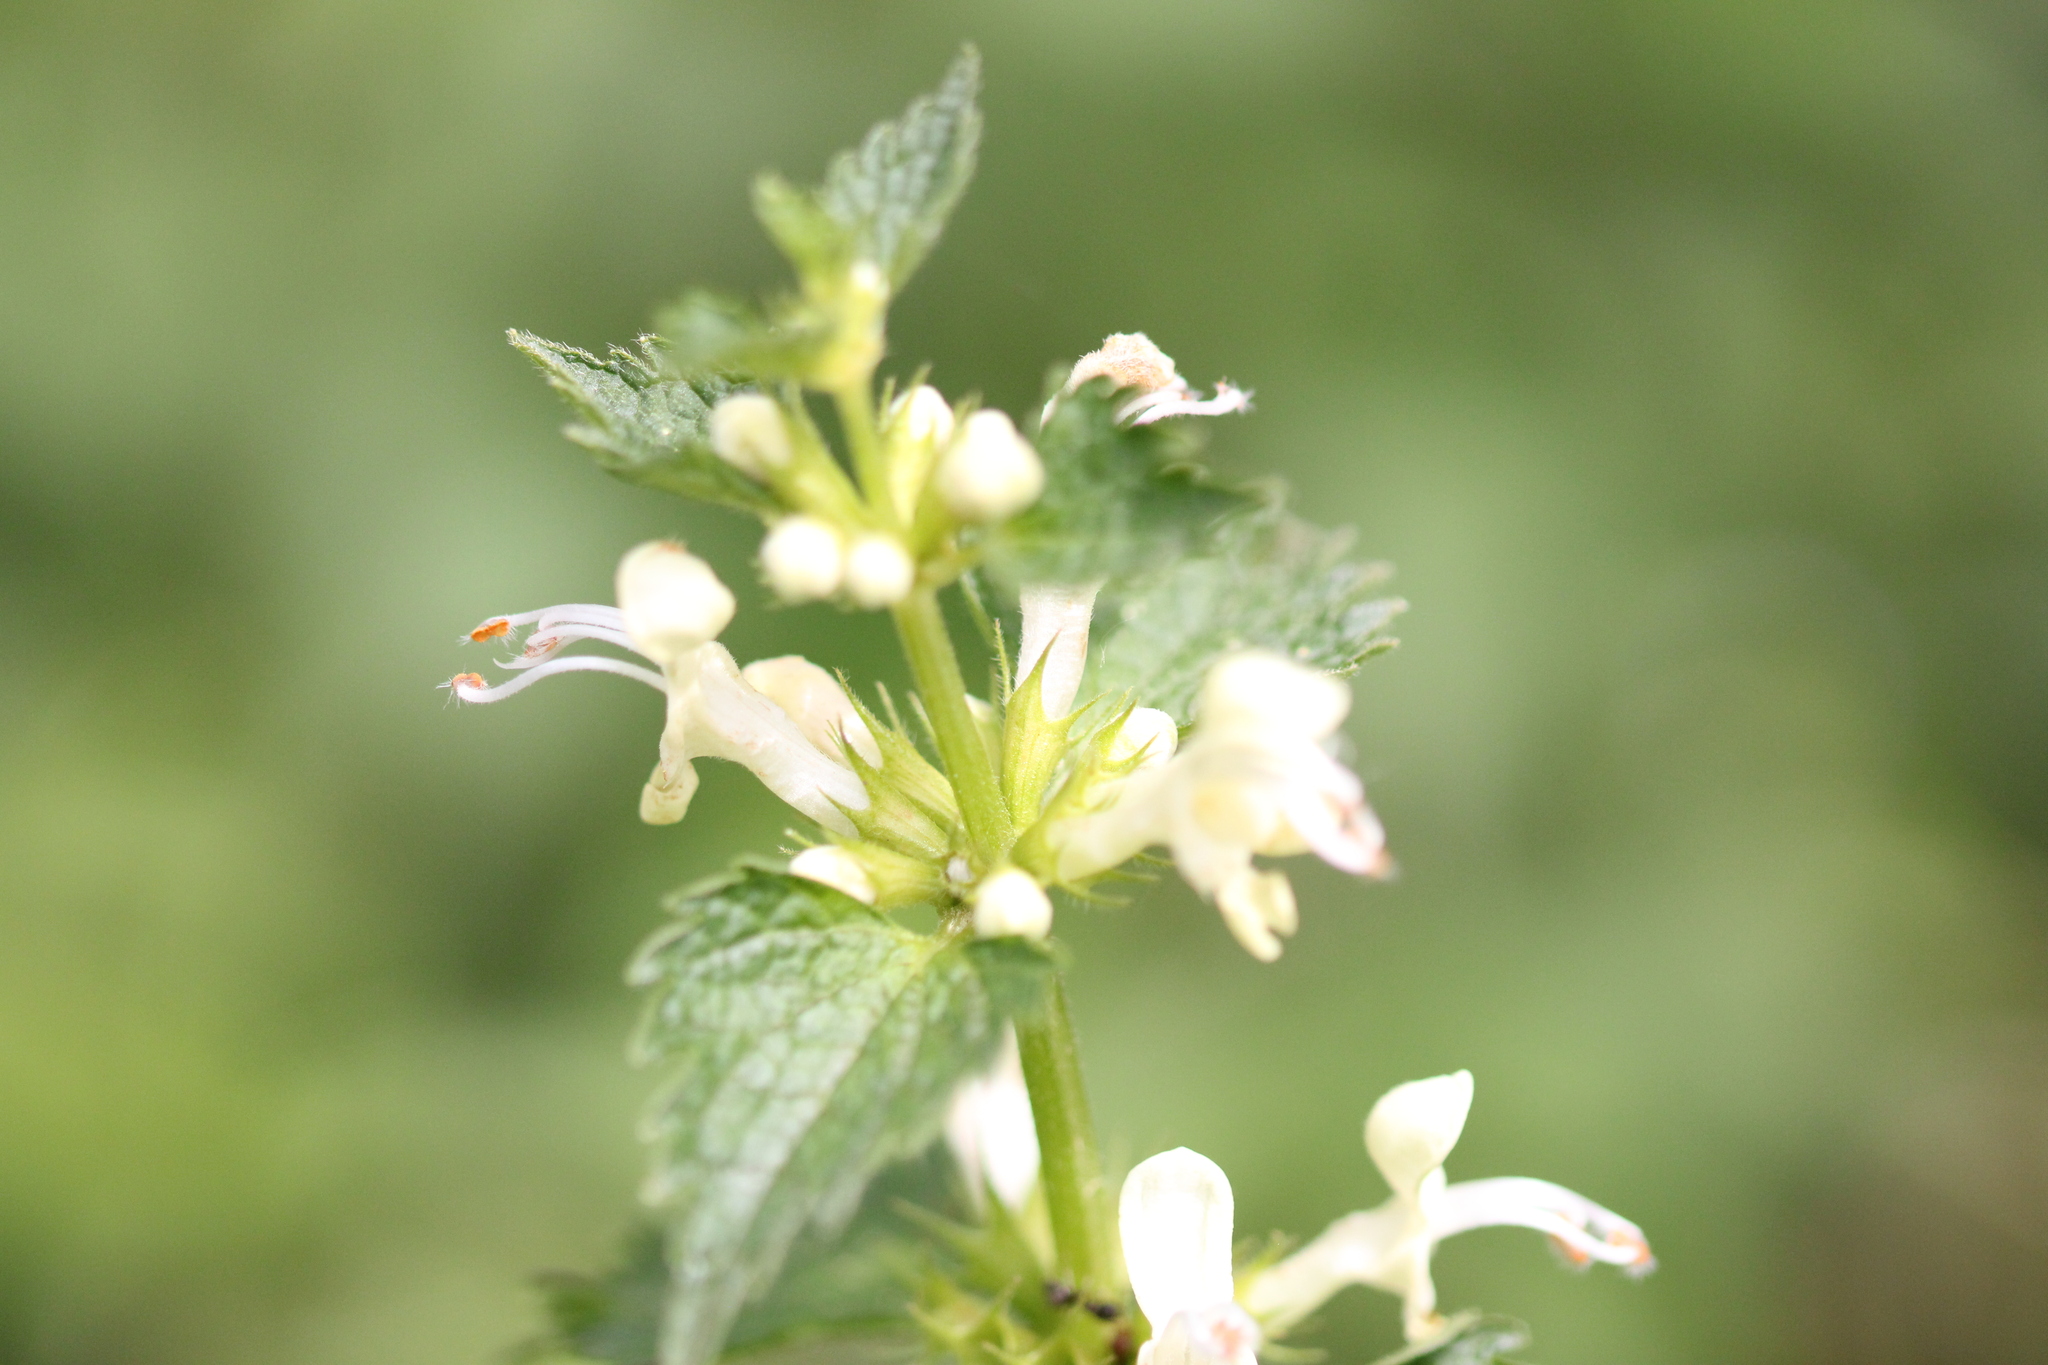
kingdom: Plantae
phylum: Tracheophyta
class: Magnoliopsida
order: Lamiales
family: Lamiaceae
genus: Lamium
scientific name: Lamium album
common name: White dead-nettle
